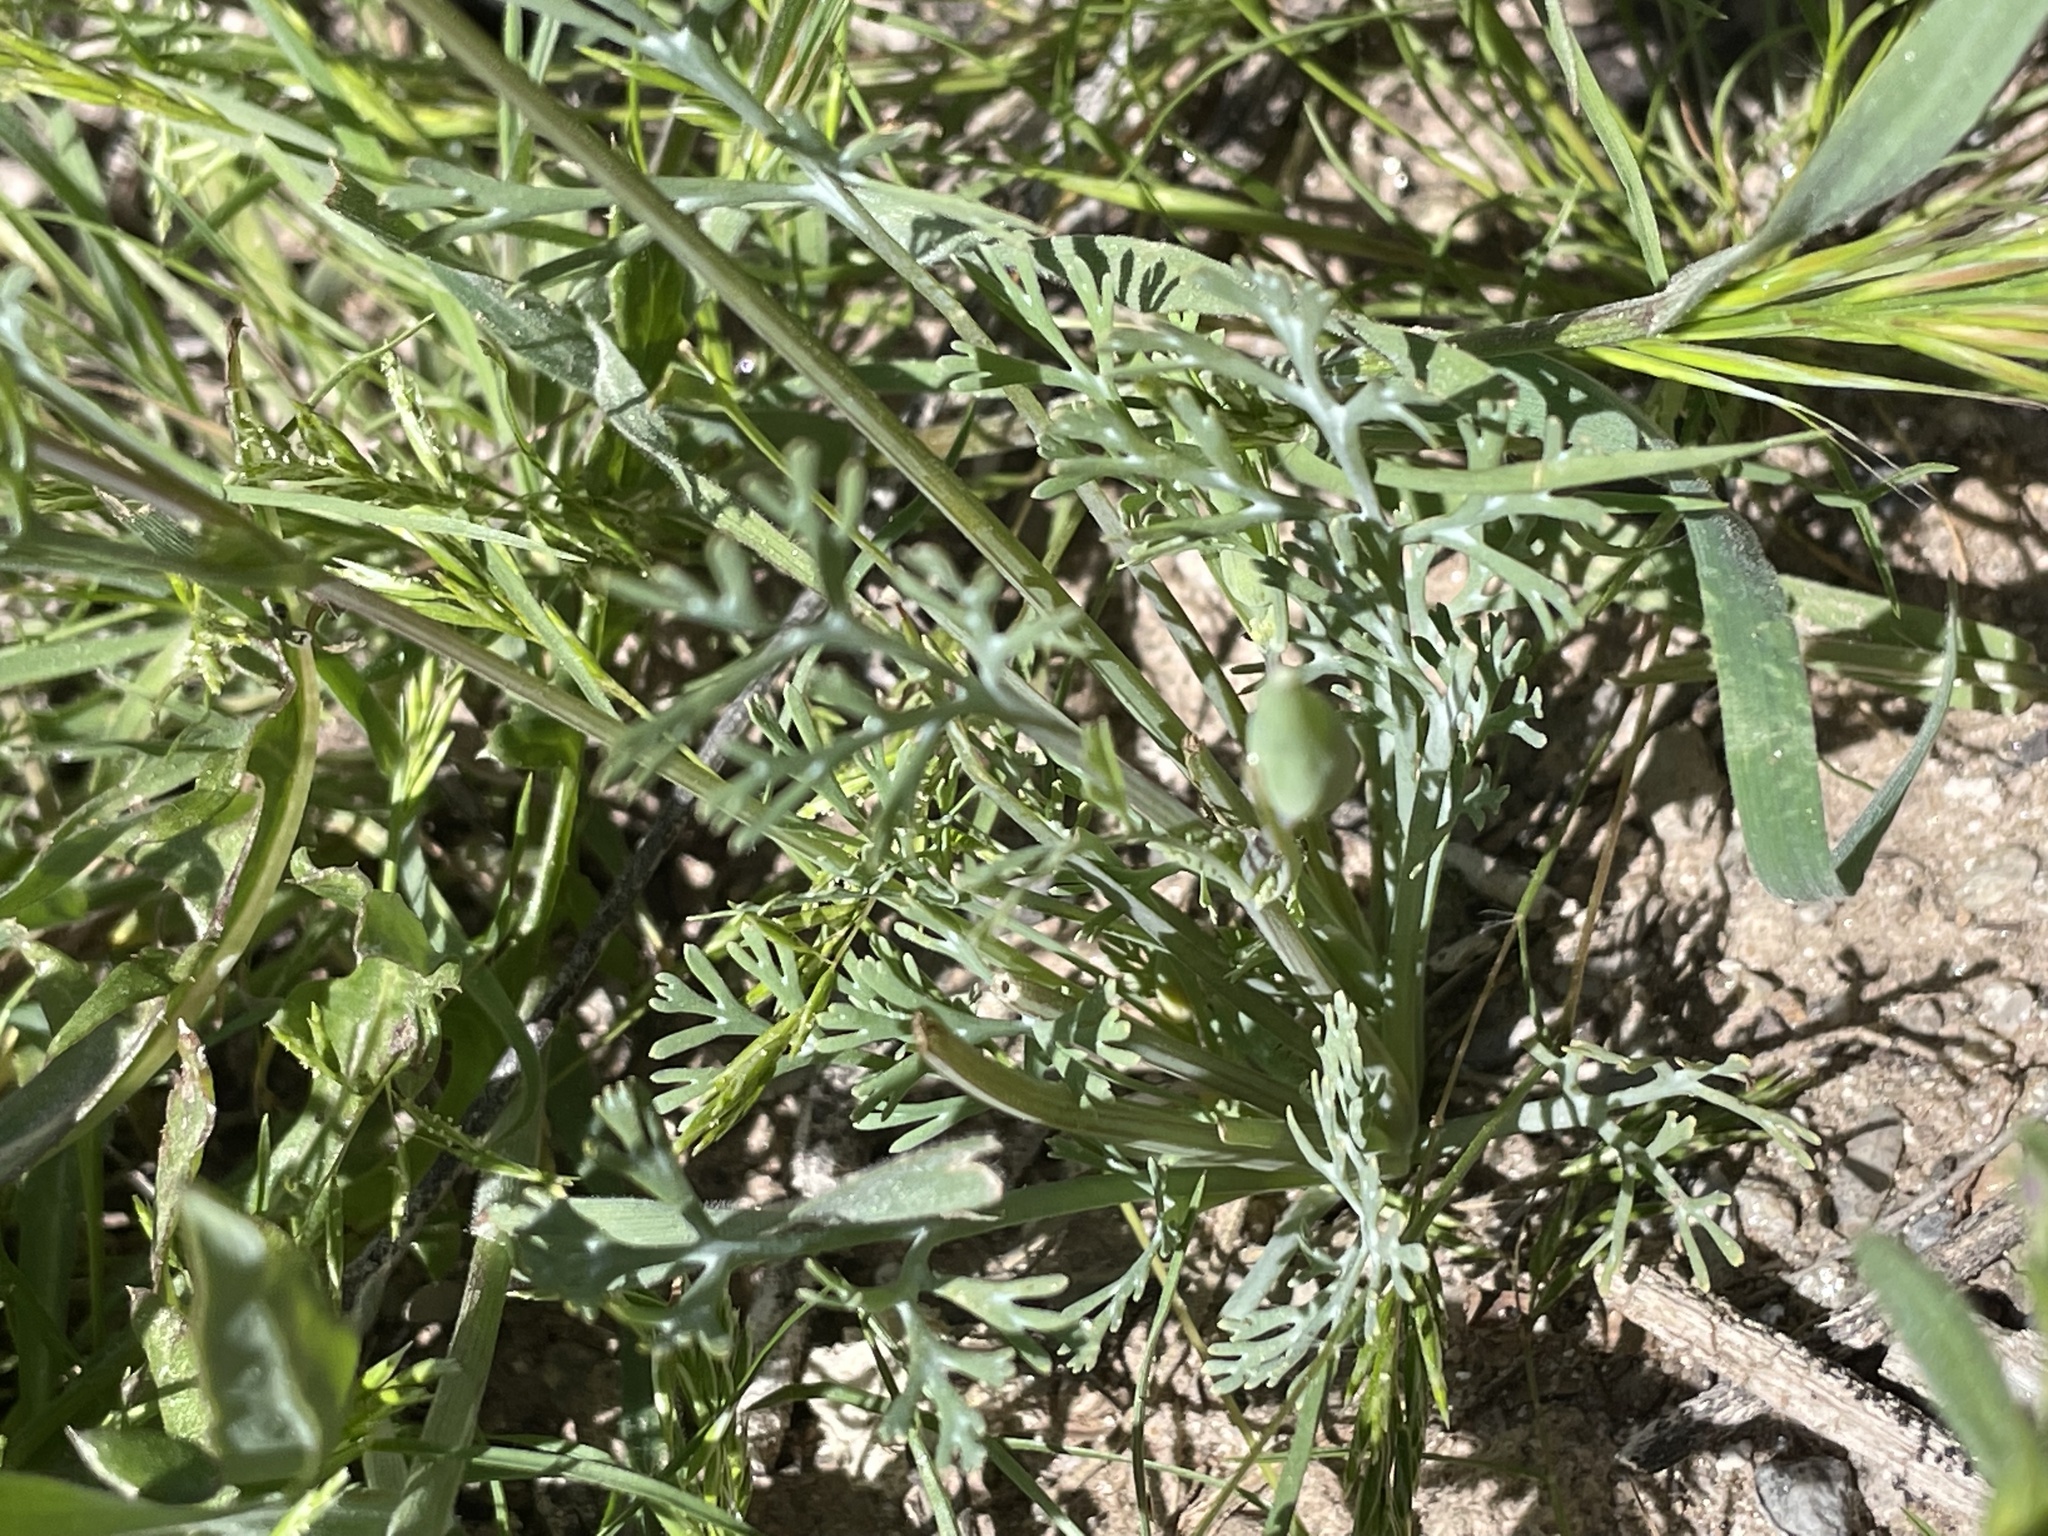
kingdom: Plantae
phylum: Tracheophyta
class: Magnoliopsida
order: Ranunculales
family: Papaveraceae
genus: Eschscholzia
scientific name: Eschscholzia californica
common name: California poppy
